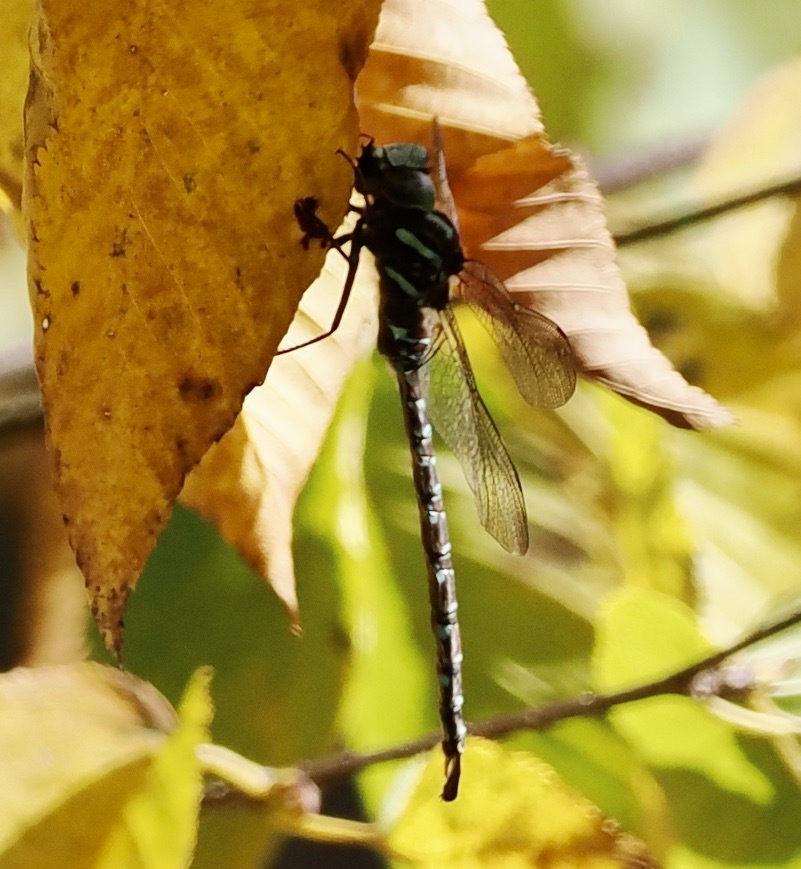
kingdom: Animalia
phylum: Arthropoda
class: Insecta
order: Odonata
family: Aeshnidae
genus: Aeshna
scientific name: Aeshna umbrosa
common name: Shadow darner
